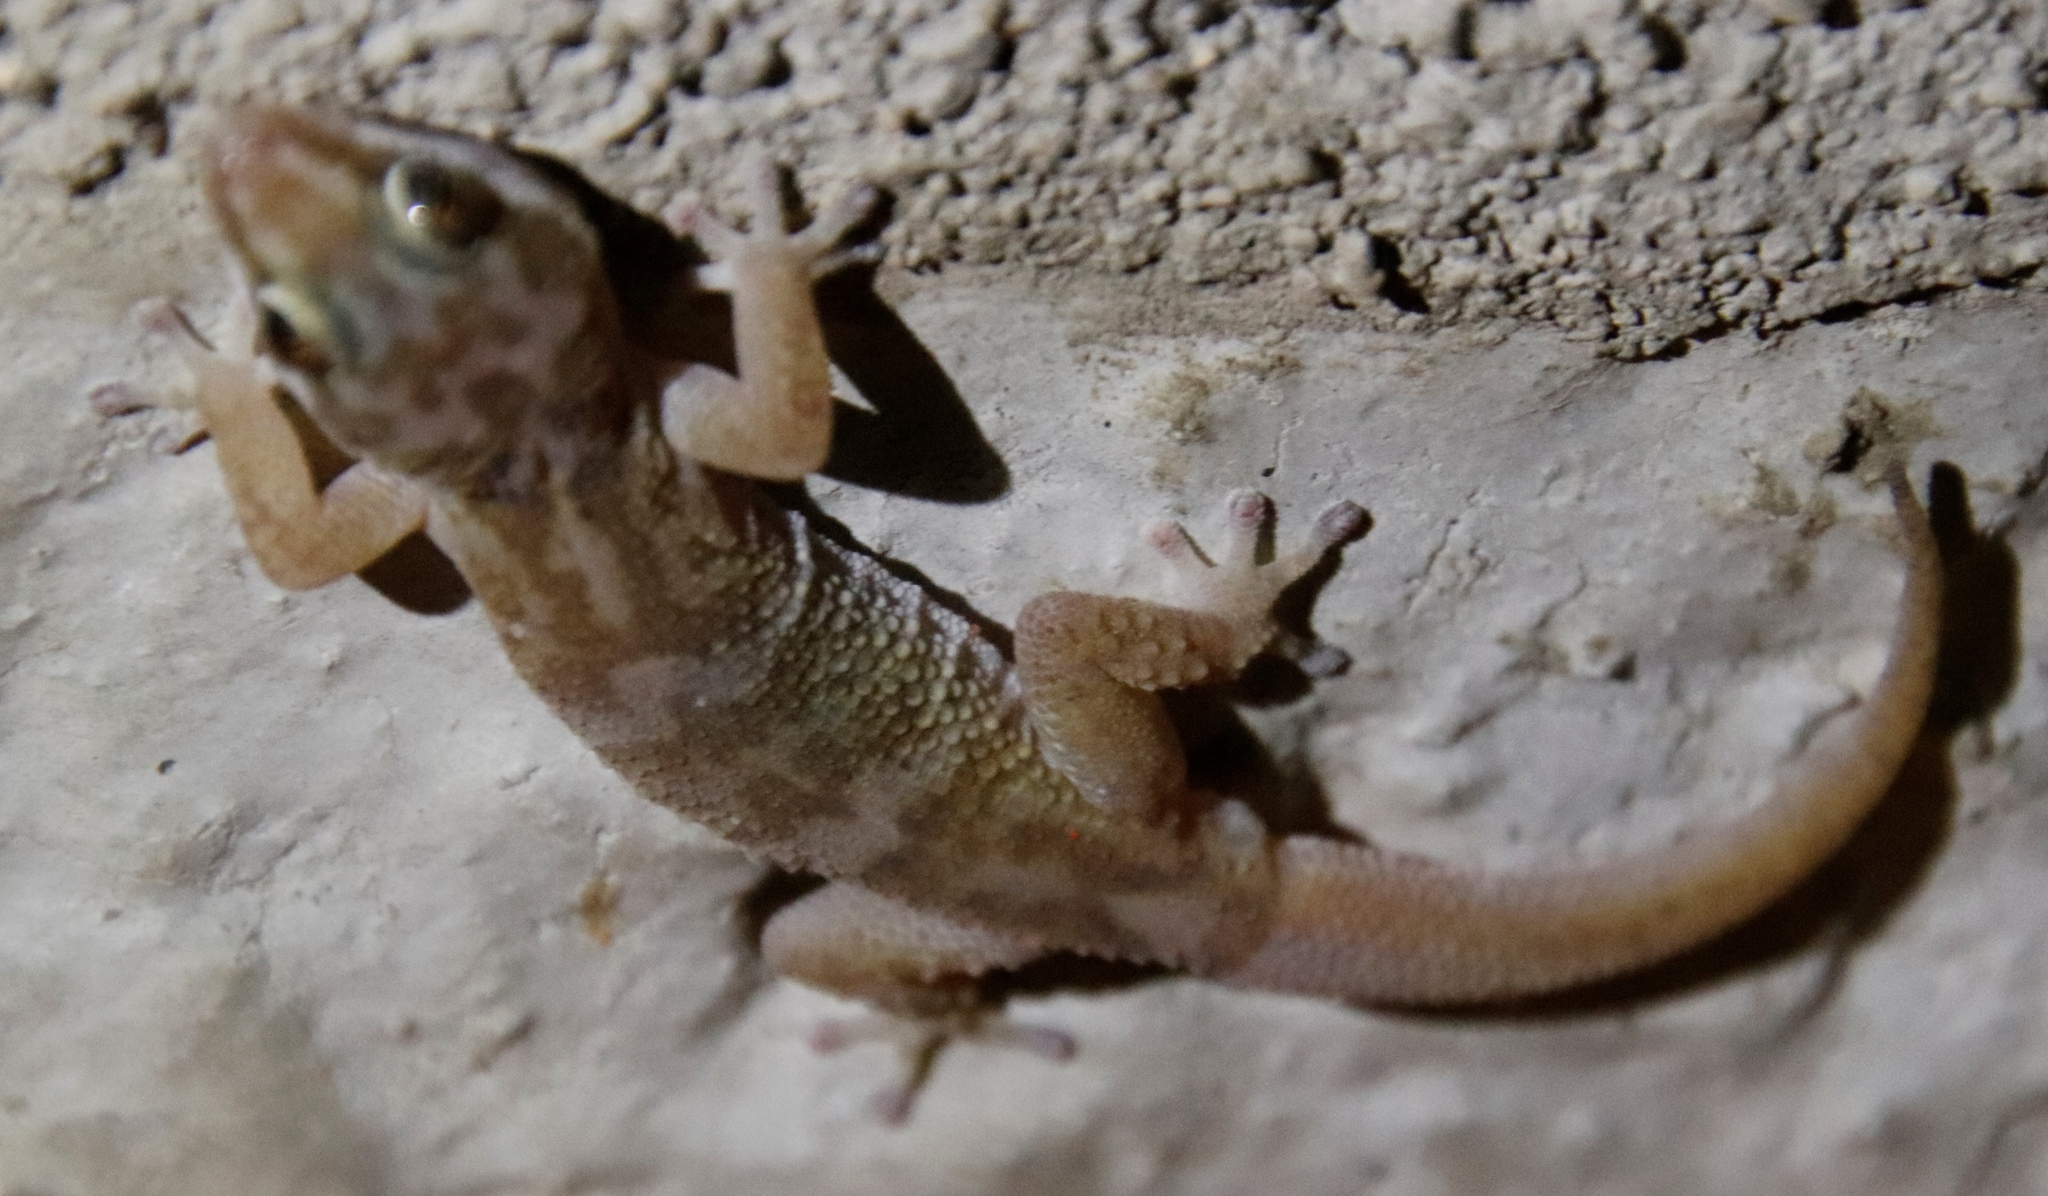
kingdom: Animalia
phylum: Chordata
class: Squamata
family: Gekkonidae
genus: Pachydactylus
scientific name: Pachydactylus weberi
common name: Weber's gecko
